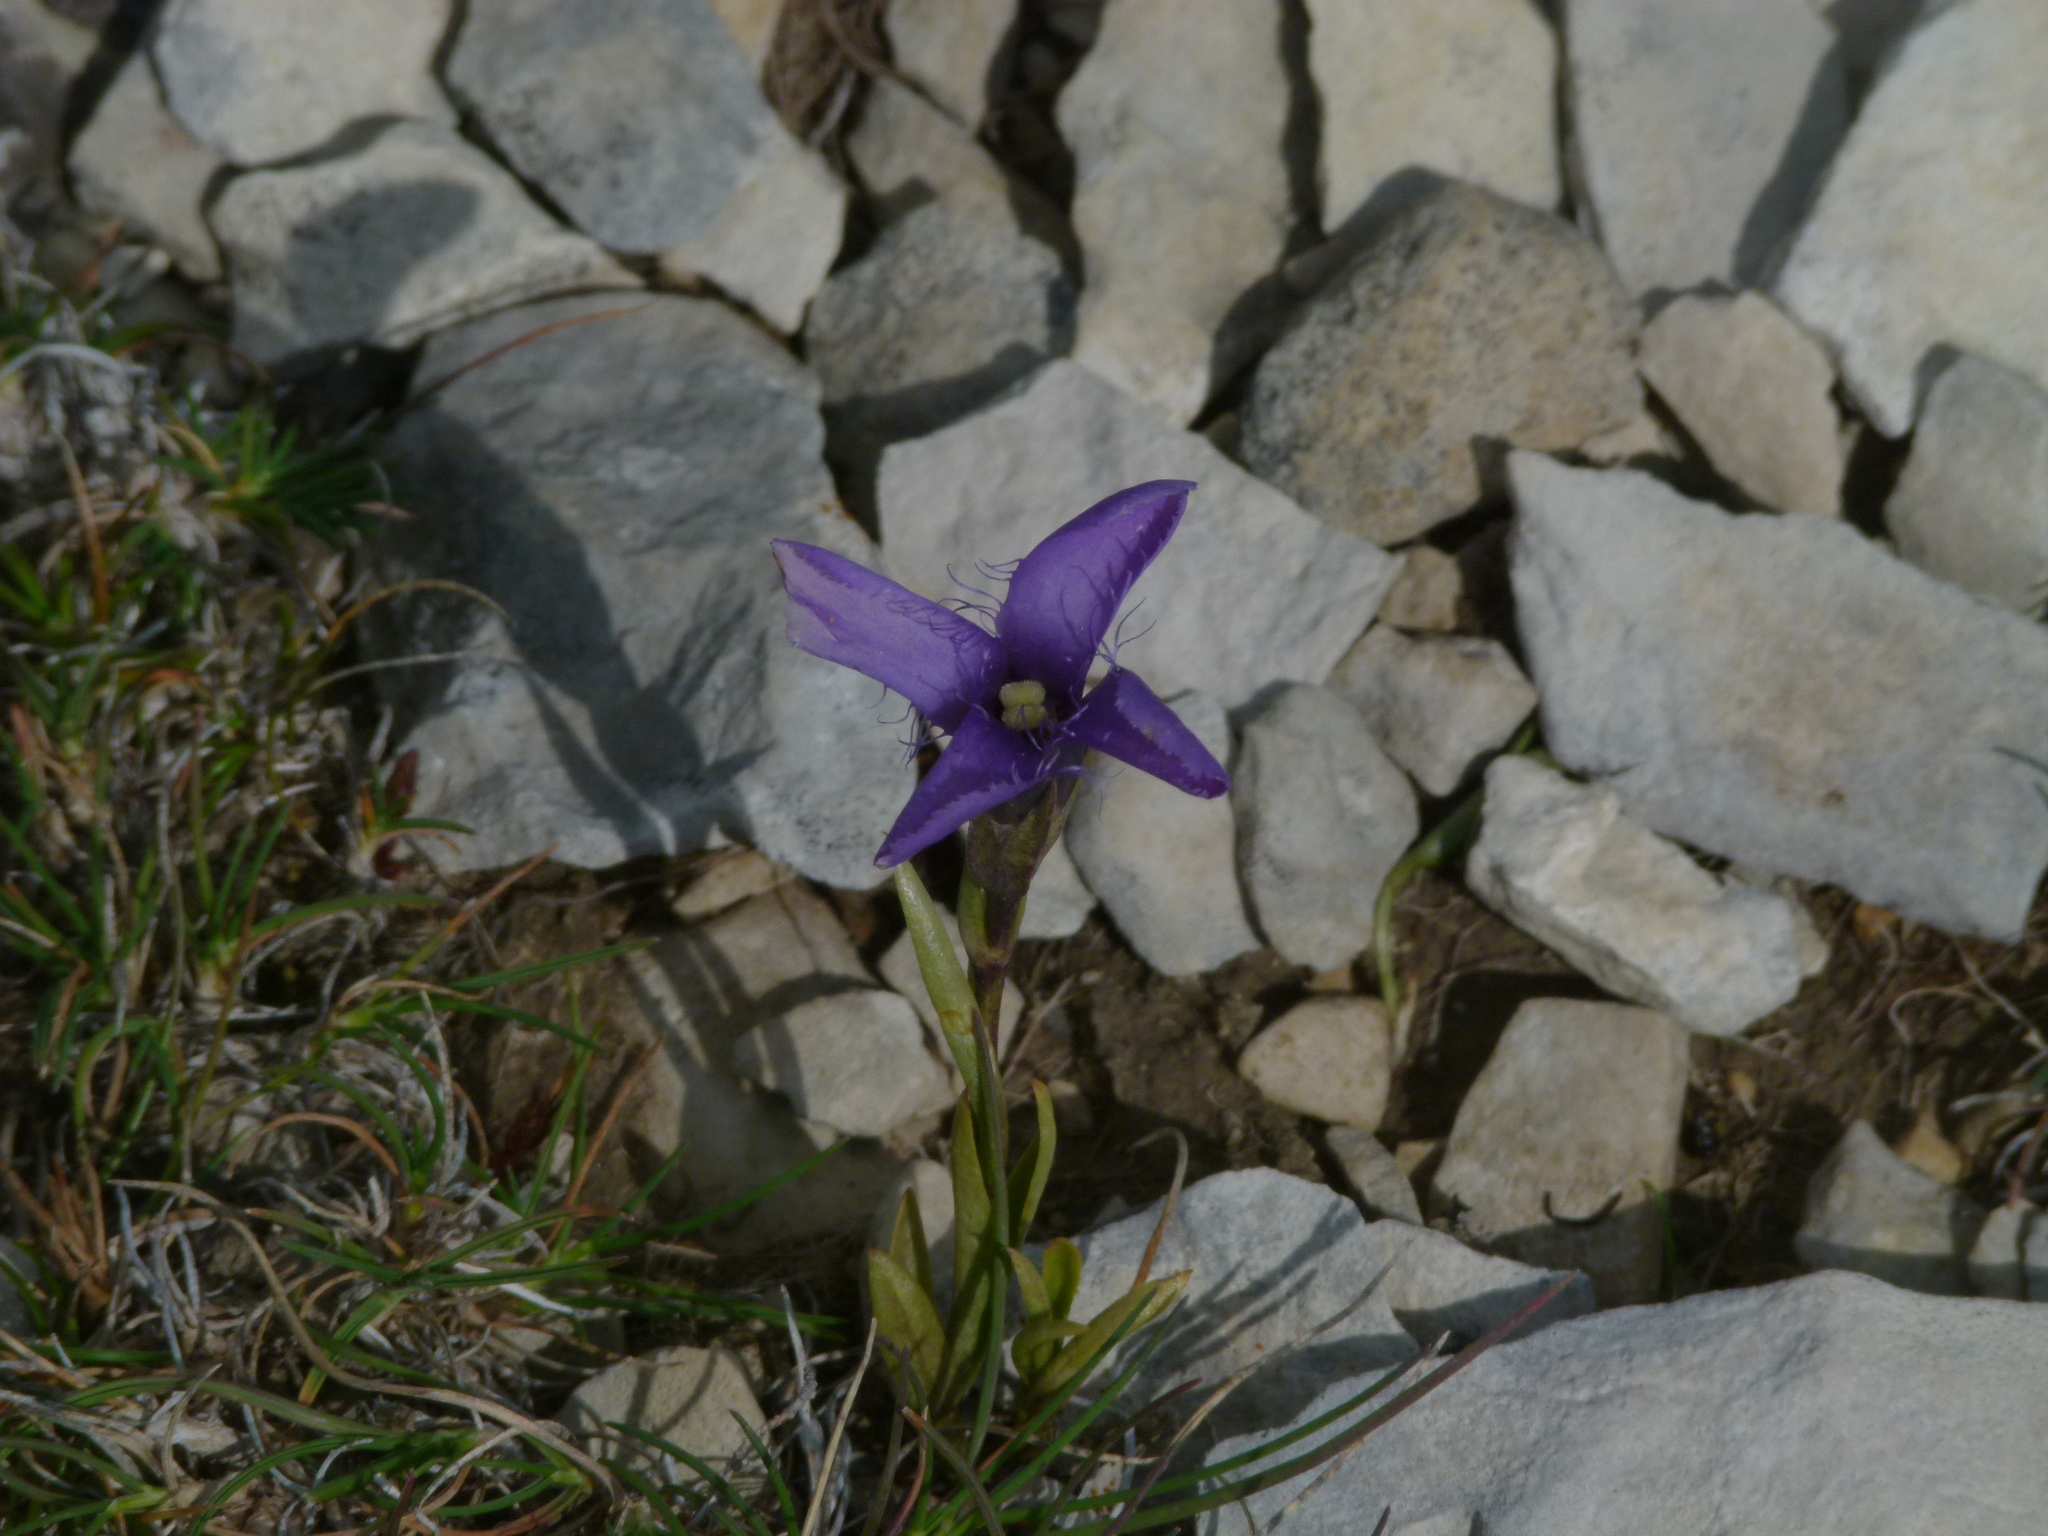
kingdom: Plantae
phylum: Tracheophyta
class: Magnoliopsida
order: Gentianales
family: Gentianaceae
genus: Gentianopsis
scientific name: Gentianopsis ciliata
